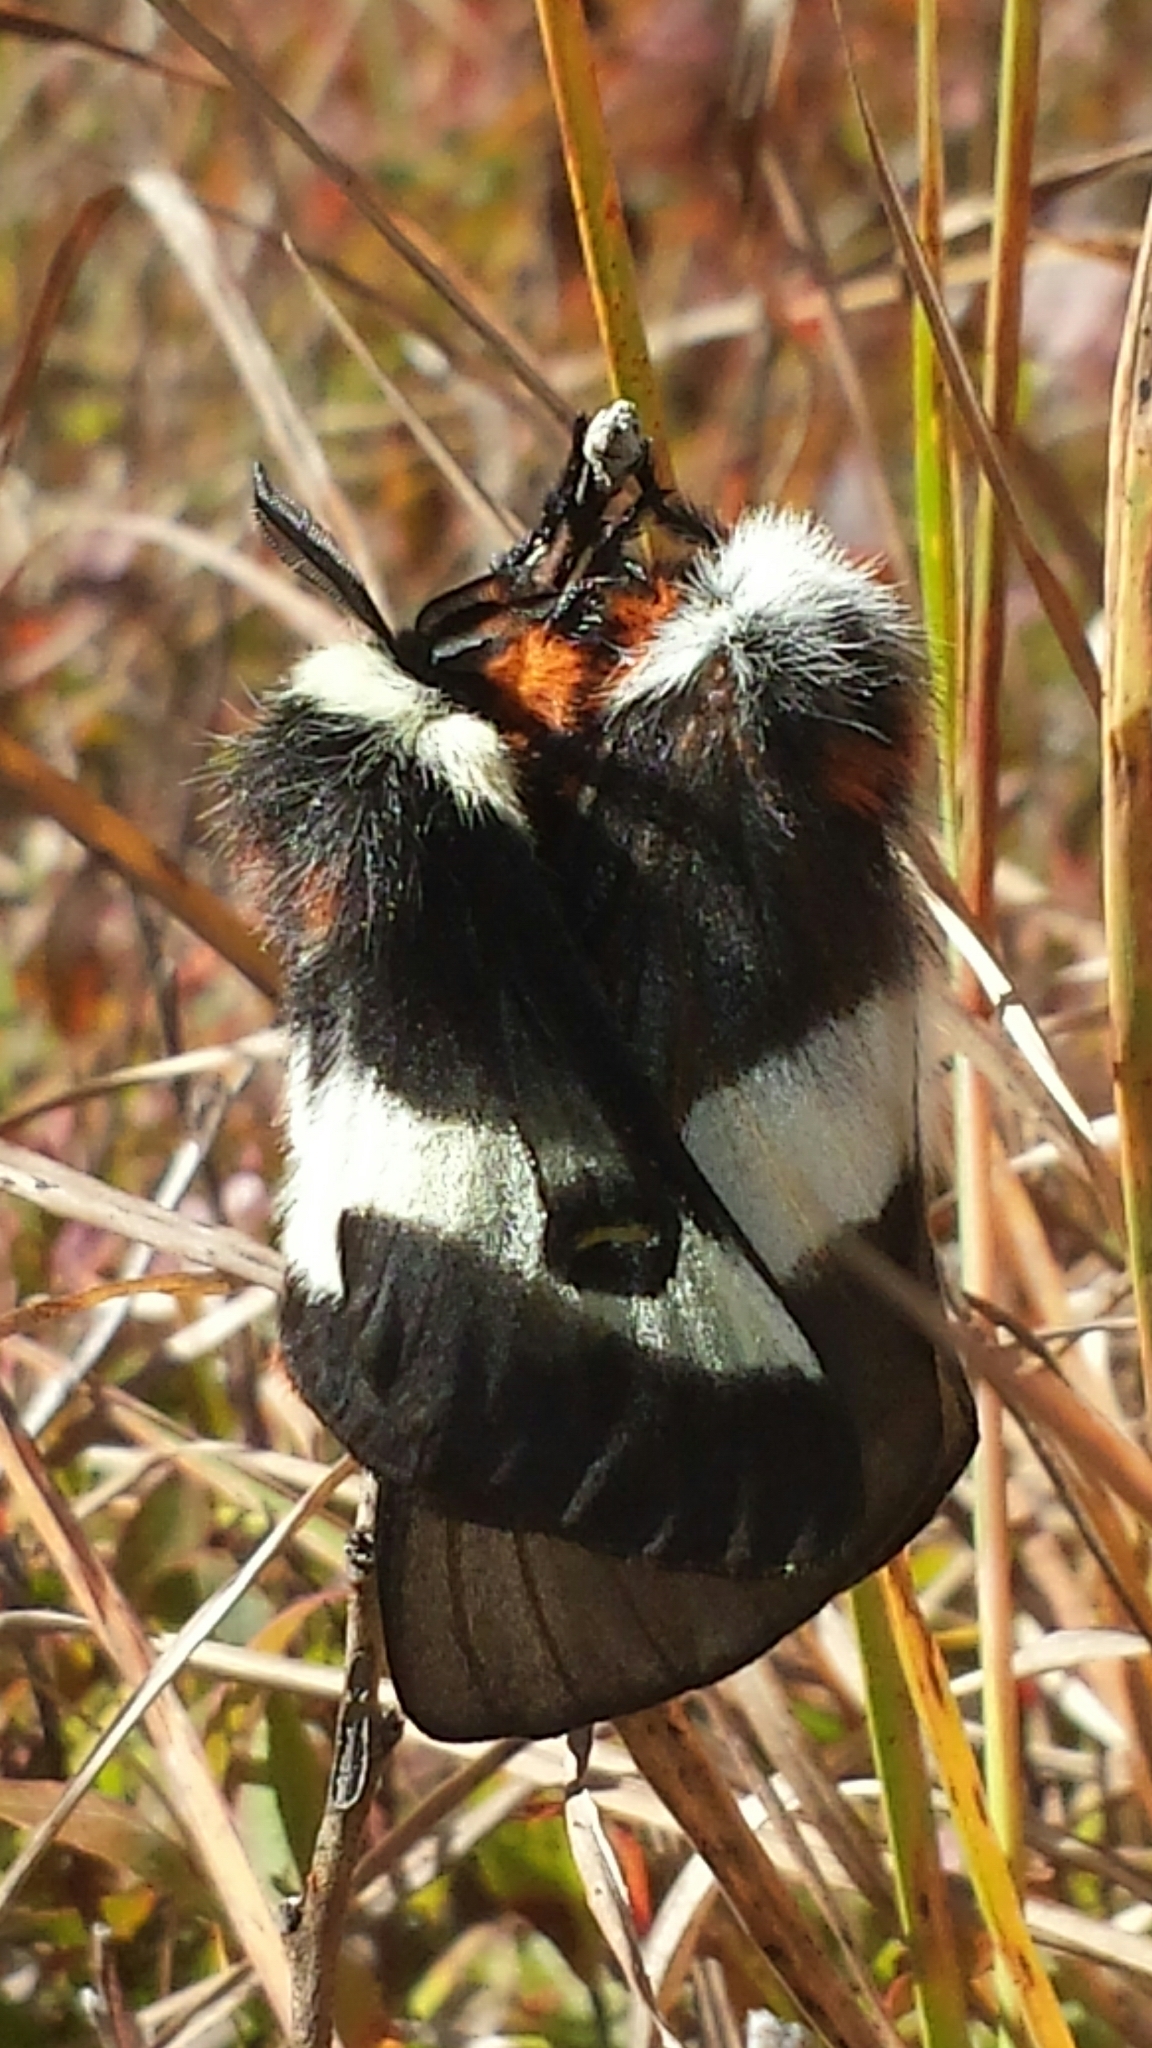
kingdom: Animalia
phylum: Arthropoda
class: Insecta
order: Lepidoptera
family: Saturniidae
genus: Hemileuca
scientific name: Hemileuca maia
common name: Eastern buckmoth
